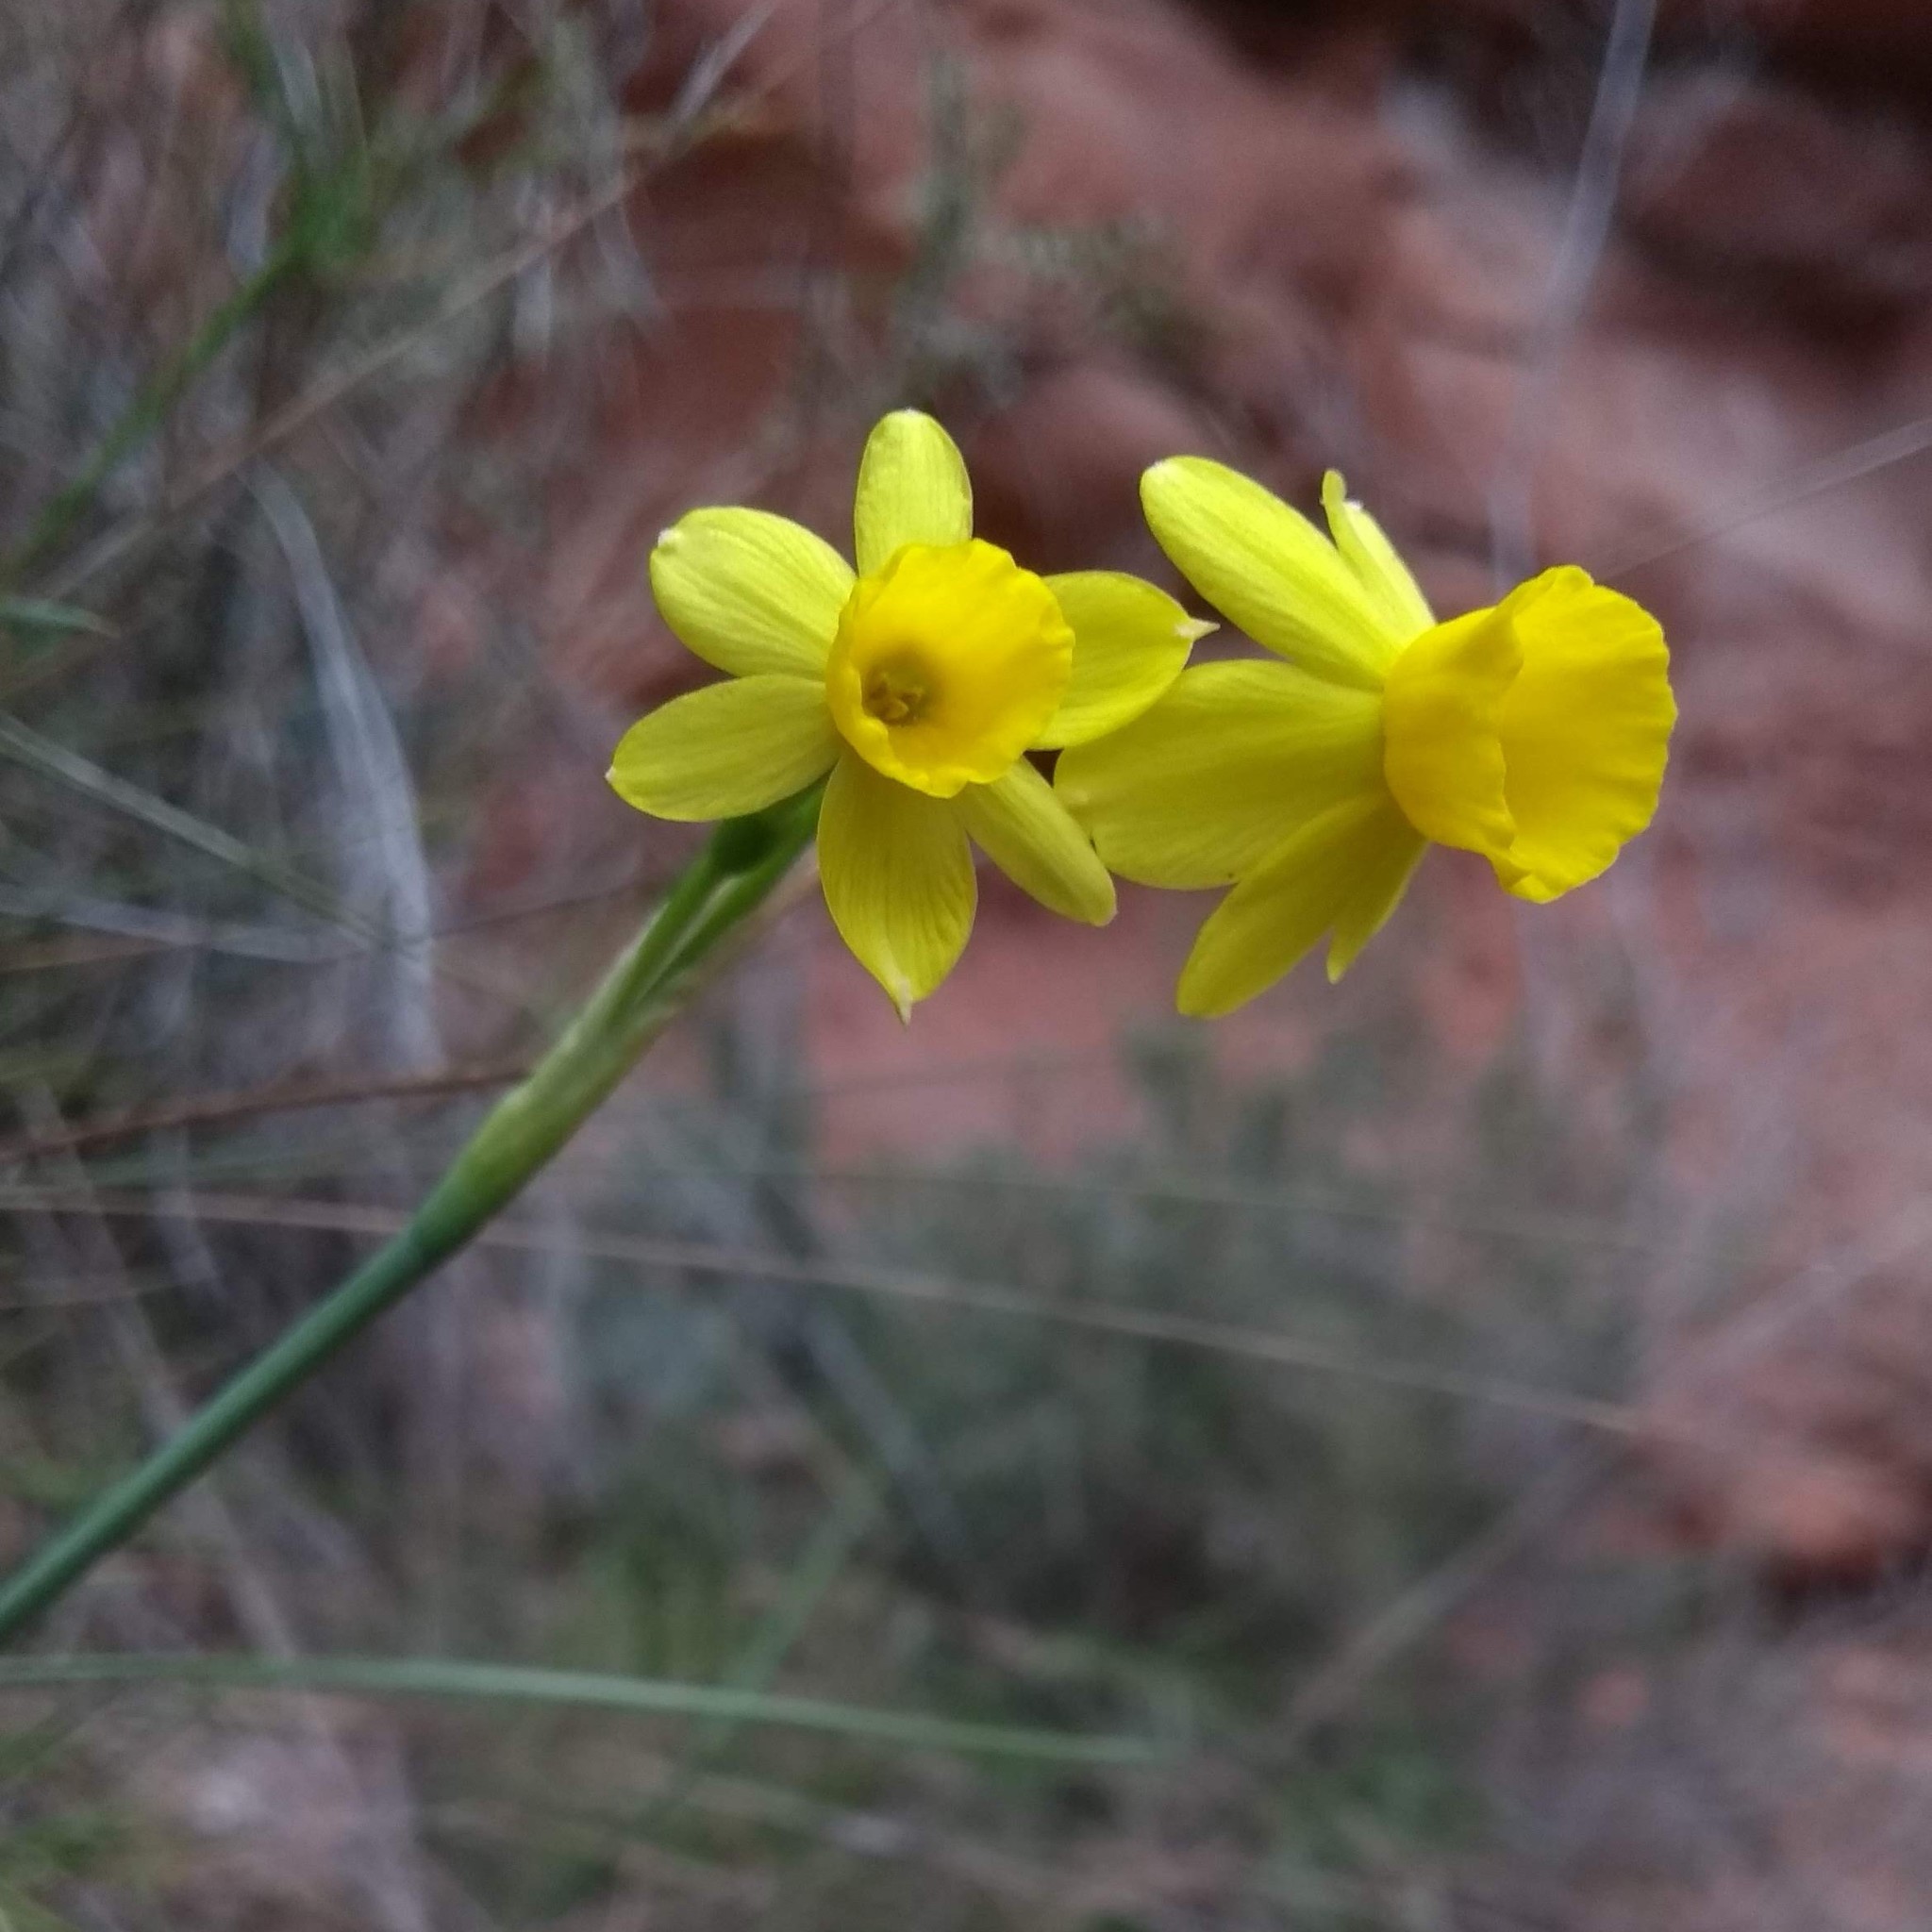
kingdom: Plantae
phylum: Tracheophyta
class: Liliopsida
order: Asparagales
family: Amaryllidaceae
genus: Narcissus
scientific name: Narcissus assoanus
